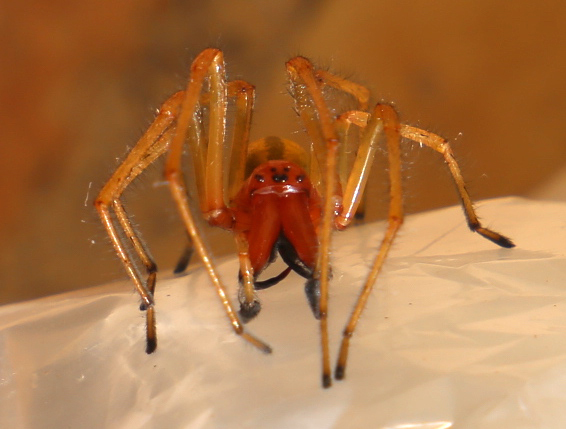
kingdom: Animalia
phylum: Arthropoda
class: Arachnida
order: Araneae
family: Cheiracanthiidae
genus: Cheiracanthium
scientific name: Cheiracanthium punctorium
